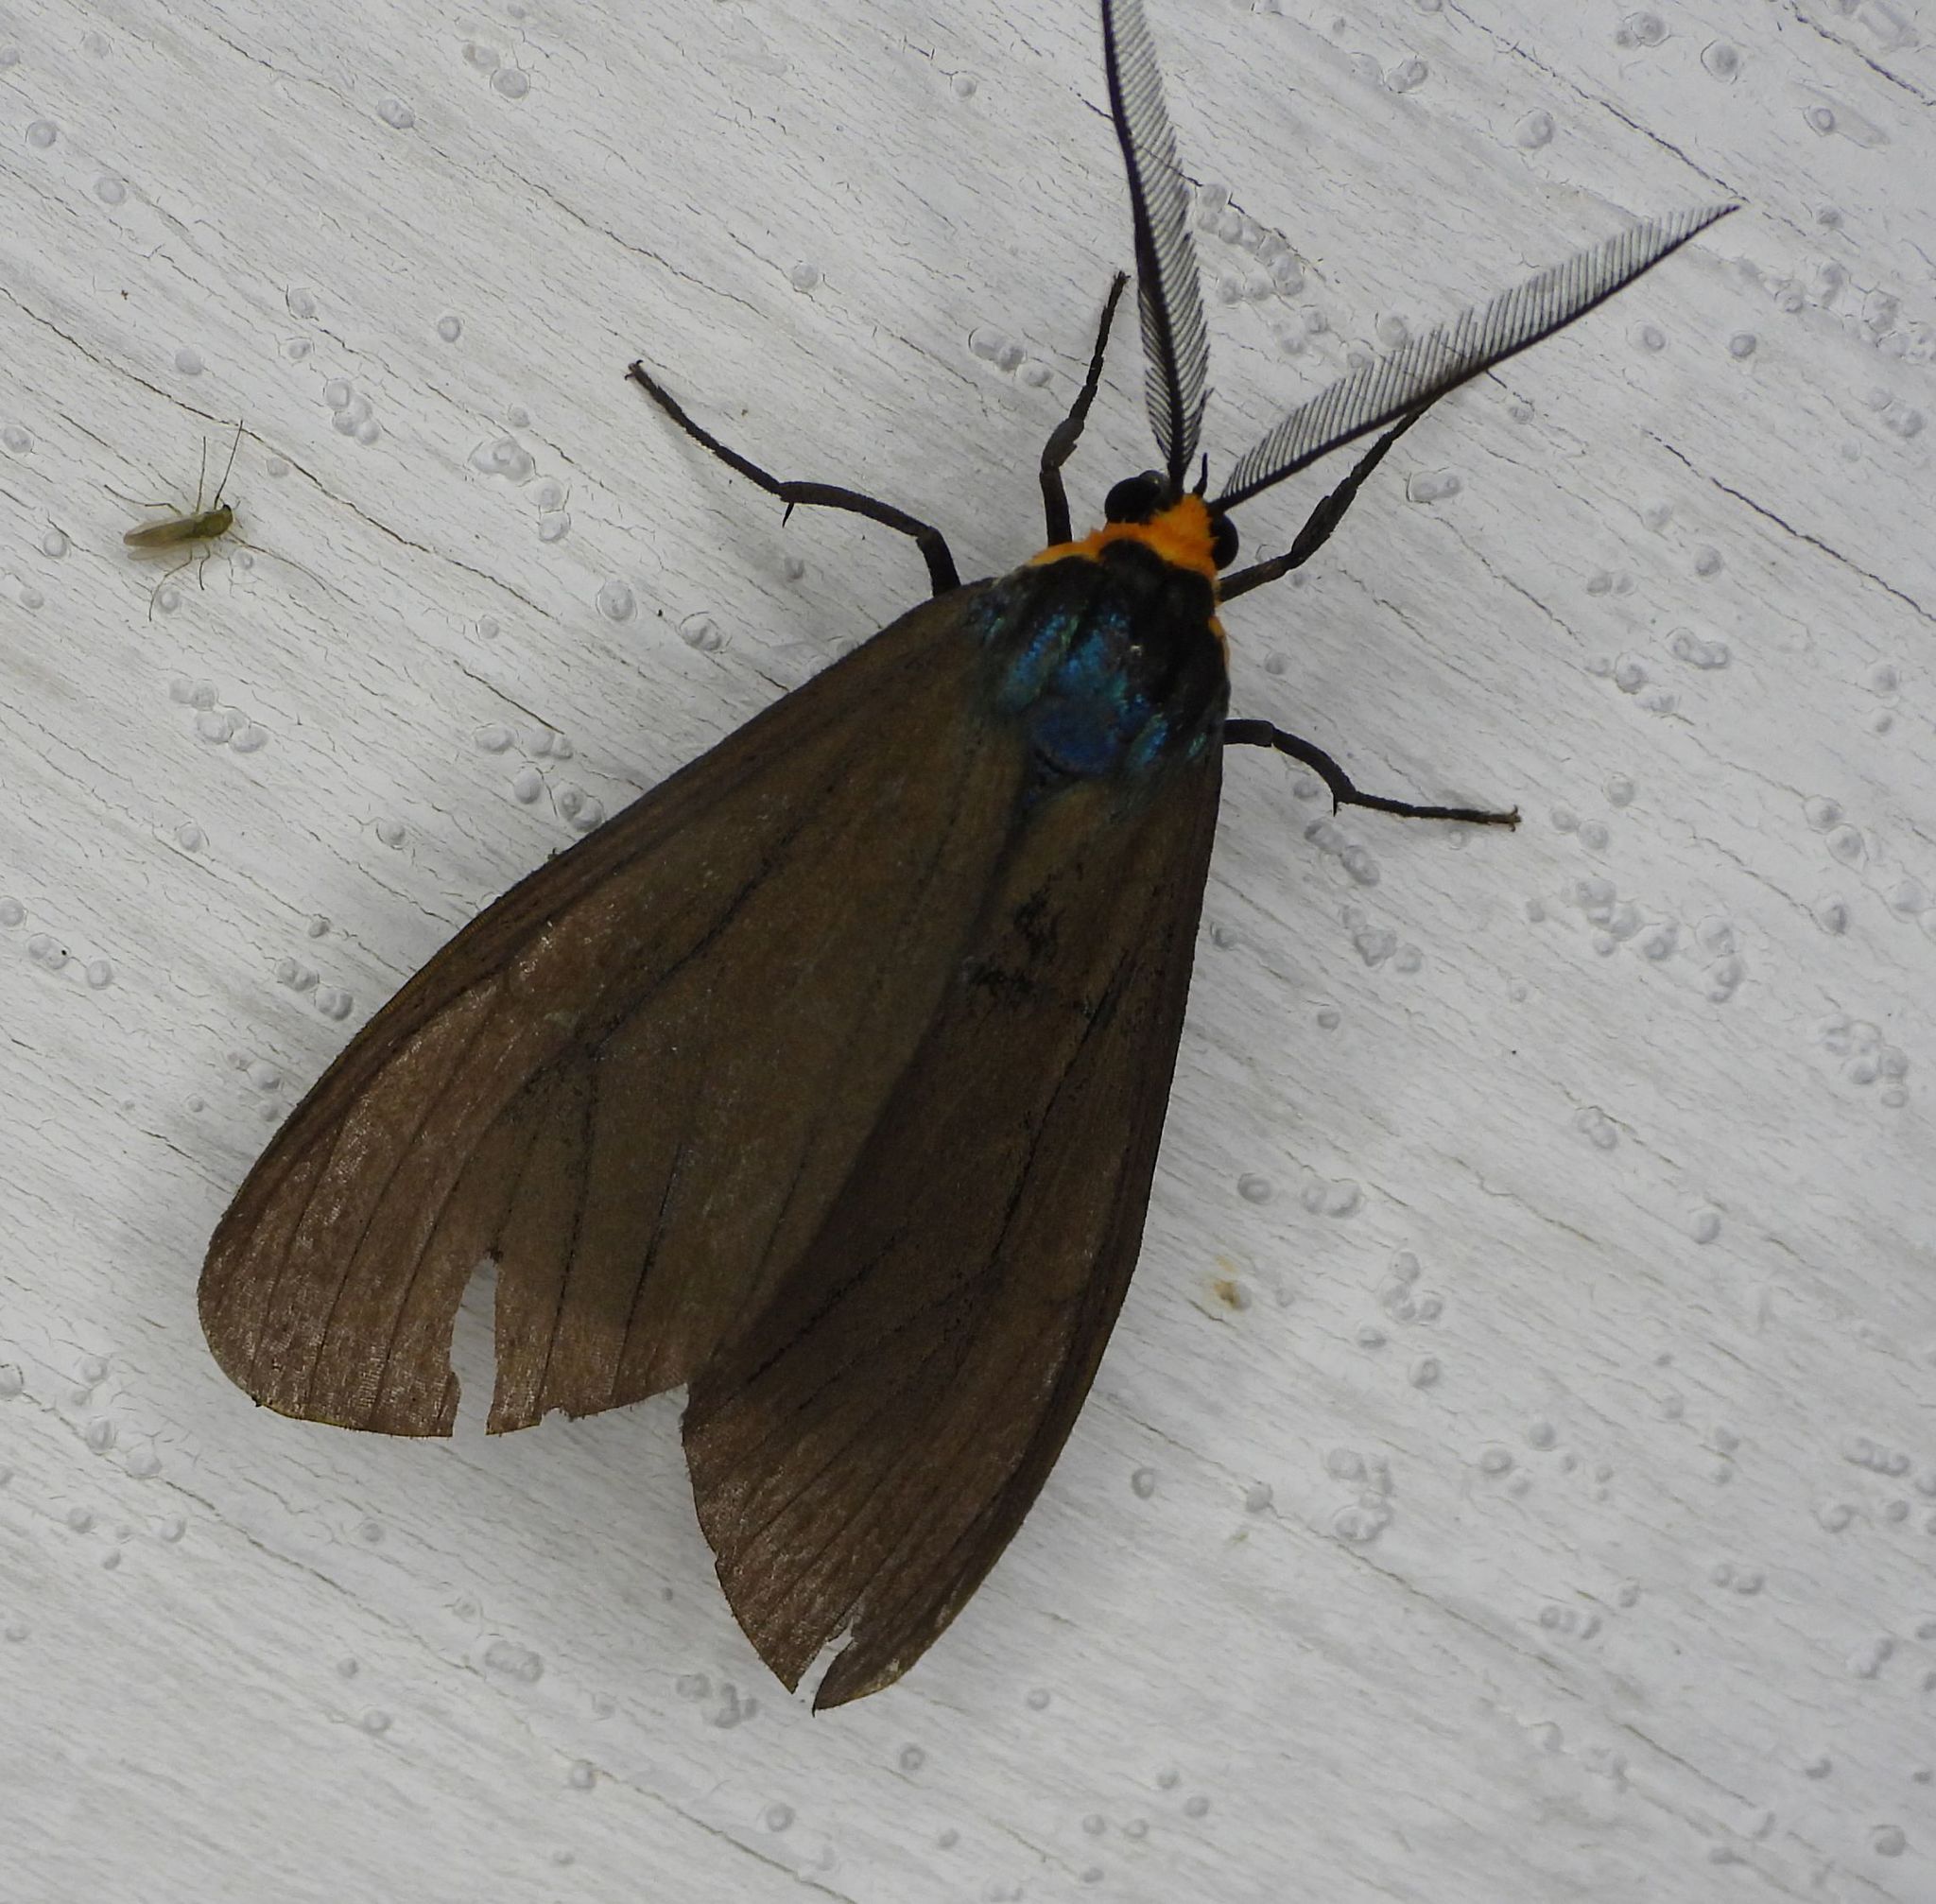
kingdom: Animalia
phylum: Arthropoda
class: Insecta
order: Lepidoptera
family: Erebidae
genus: Ctenucha
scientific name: Ctenucha virginica
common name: Virginia ctenucha moth
